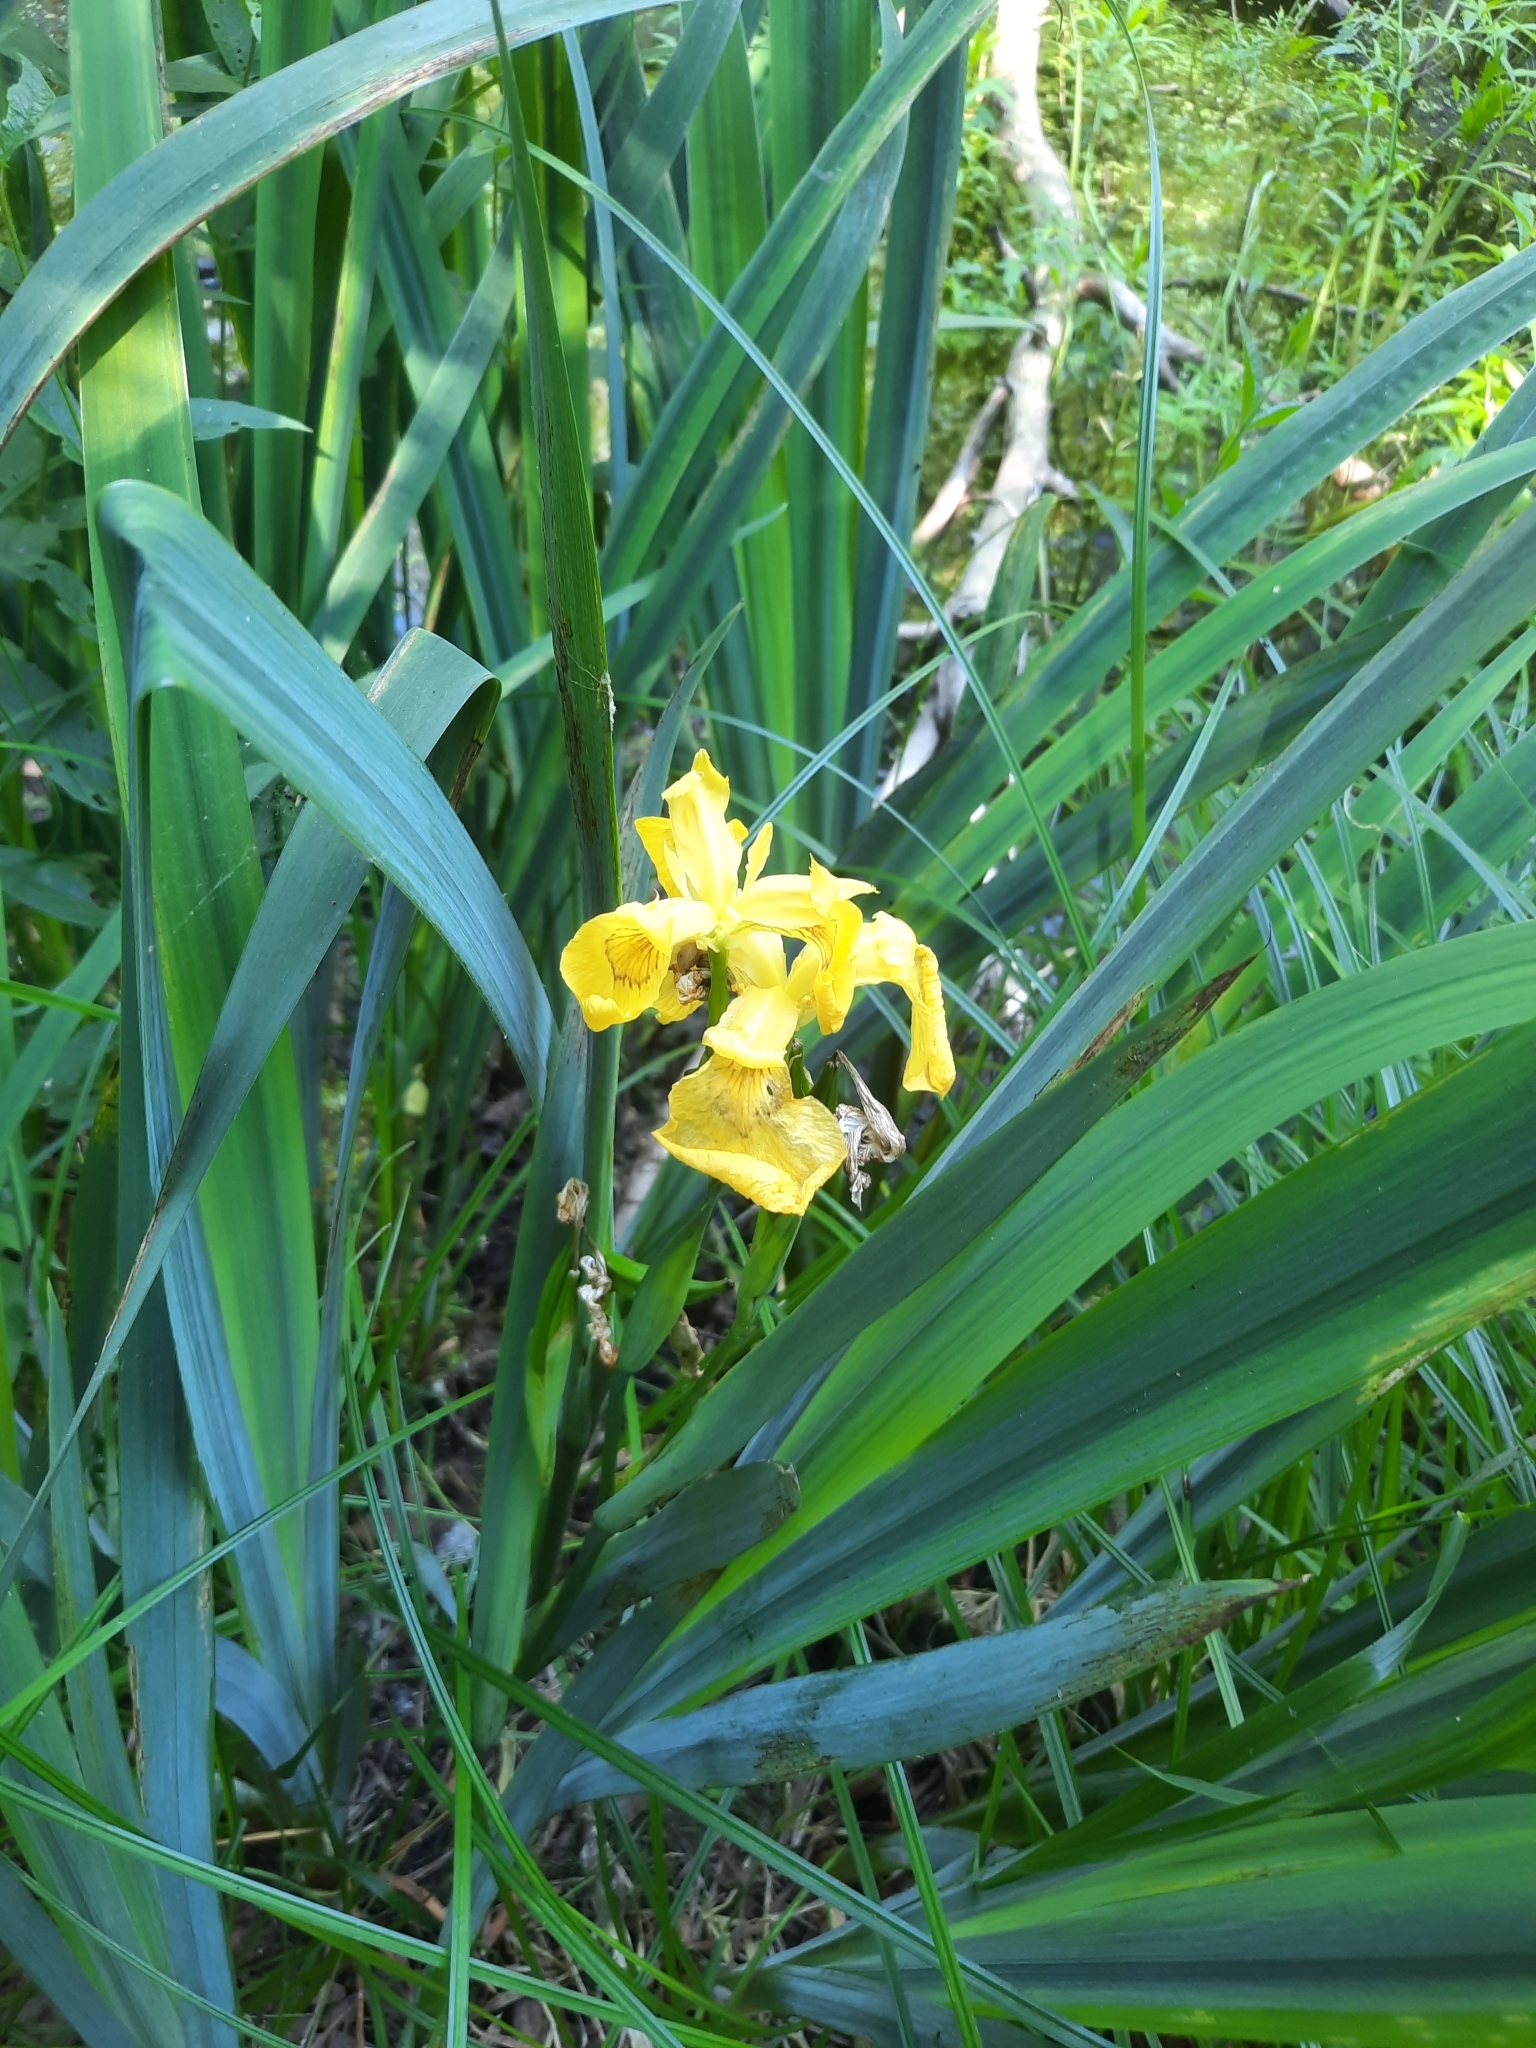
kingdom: Plantae
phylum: Tracheophyta
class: Liliopsida
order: Asparagales
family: Iridaceae
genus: Iris
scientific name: Iris pseudacorus
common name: Yellow flag
